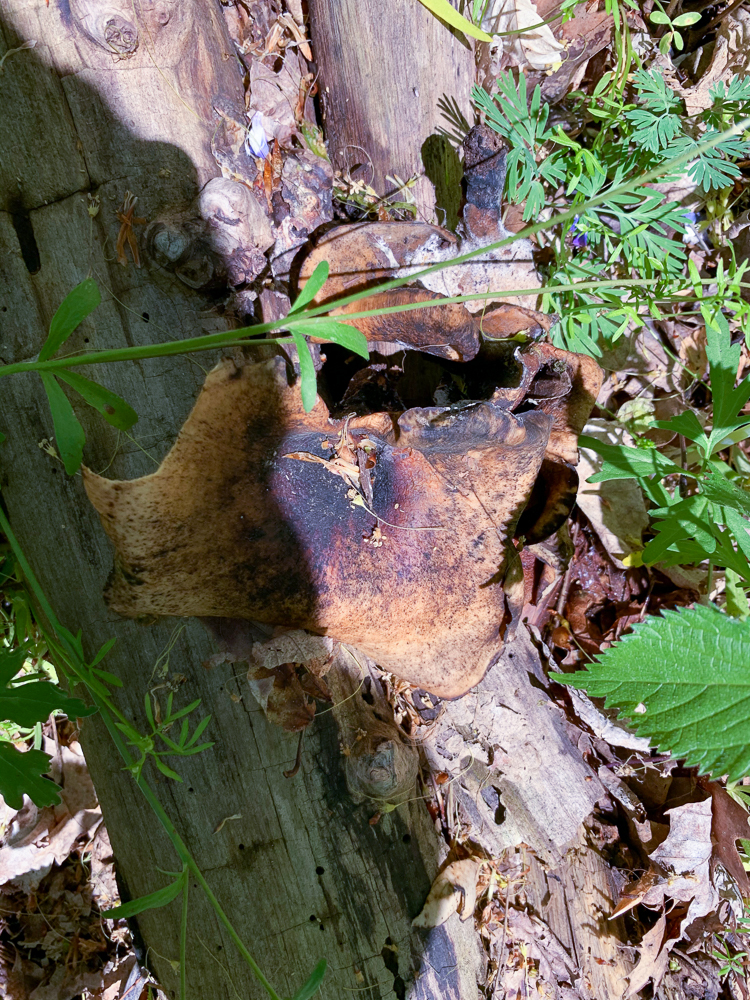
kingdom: Fungi
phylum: Basidiomycota
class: Agaricomycetes
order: Polyporales
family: Polyporaceae
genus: Picipes
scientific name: Picipes badius
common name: Bay polypore
